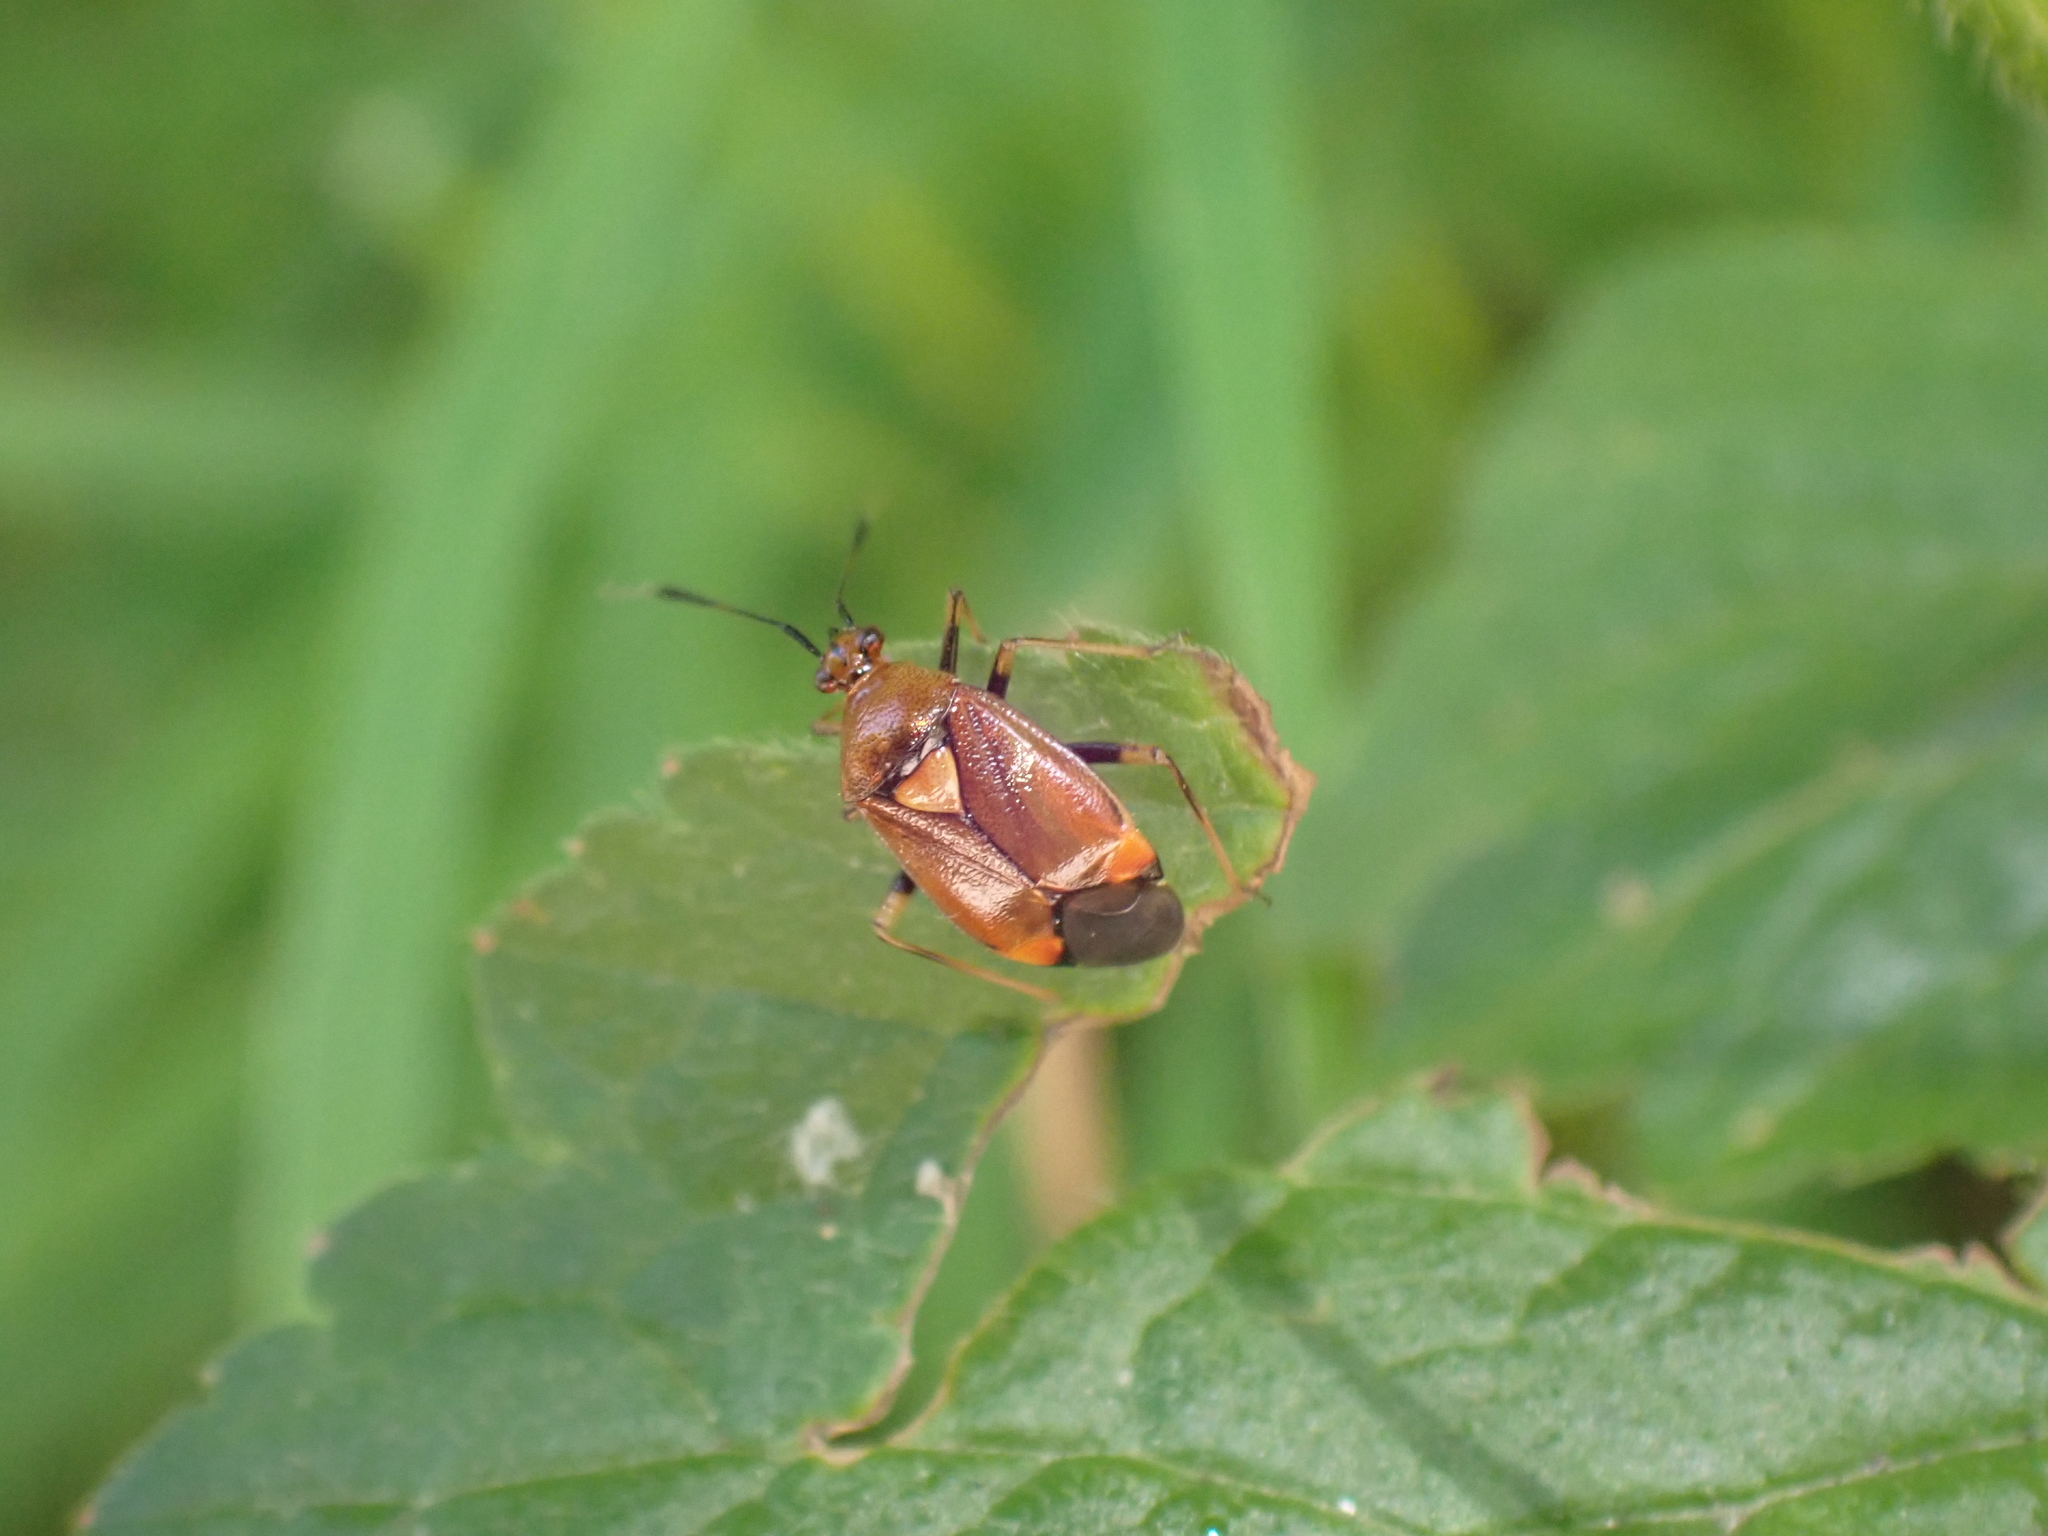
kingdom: Animalia
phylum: Arthropoda
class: Insecta
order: Hemiptera
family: Miridae
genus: Deraeocoris
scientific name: Deraeocoris ruber
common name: Plant bug
